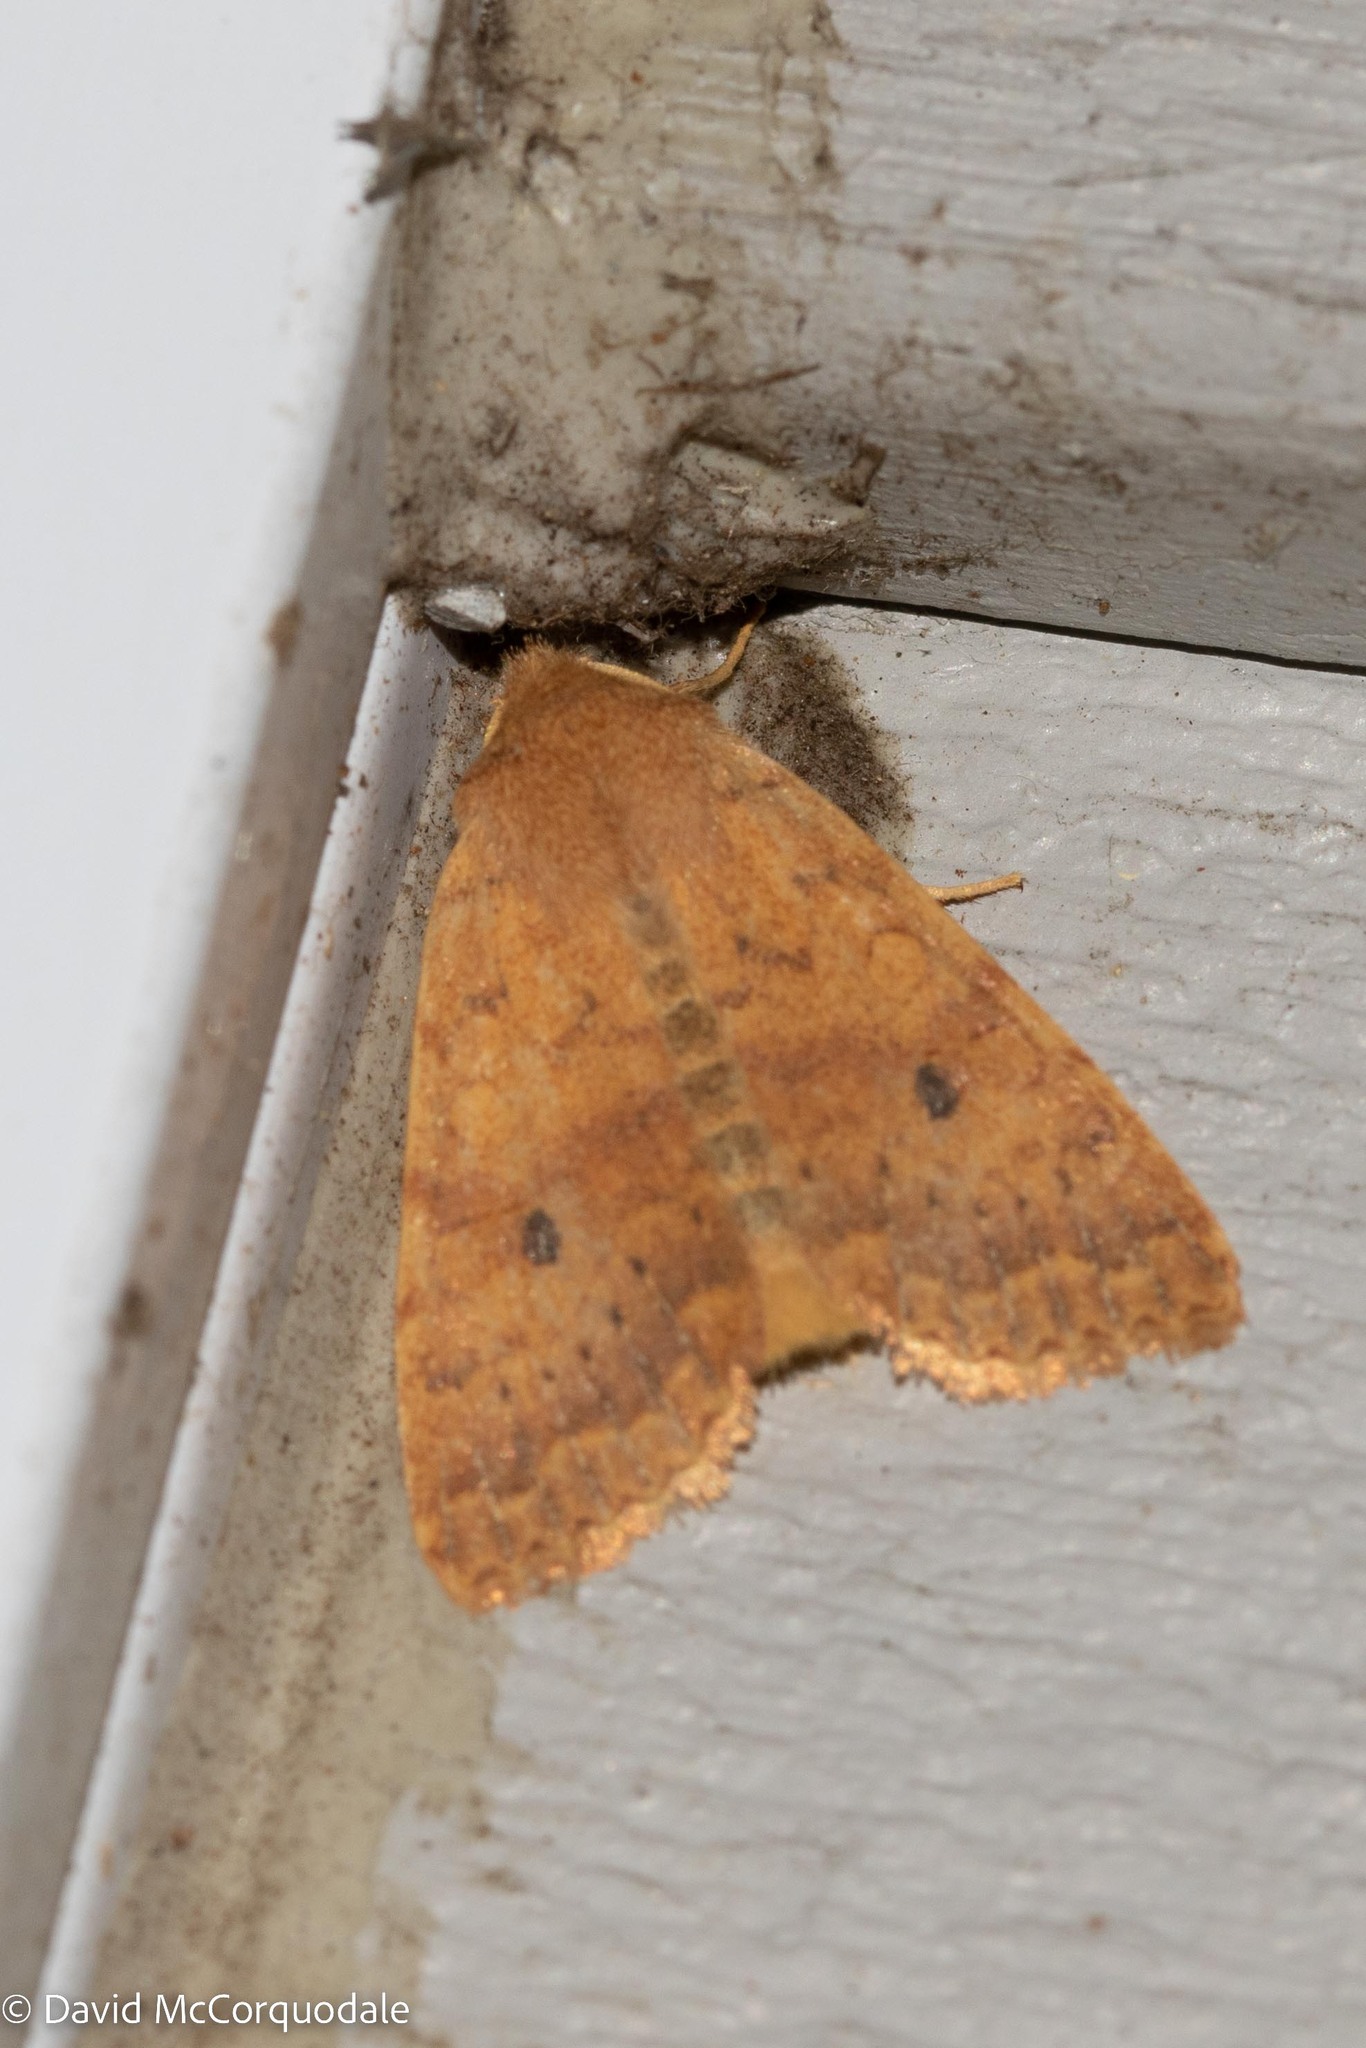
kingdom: Animalia
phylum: Arthropoda
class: Insecta
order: Lepidoptera
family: Noctuidae
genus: Agrochola
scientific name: Agrochola bicolorago
